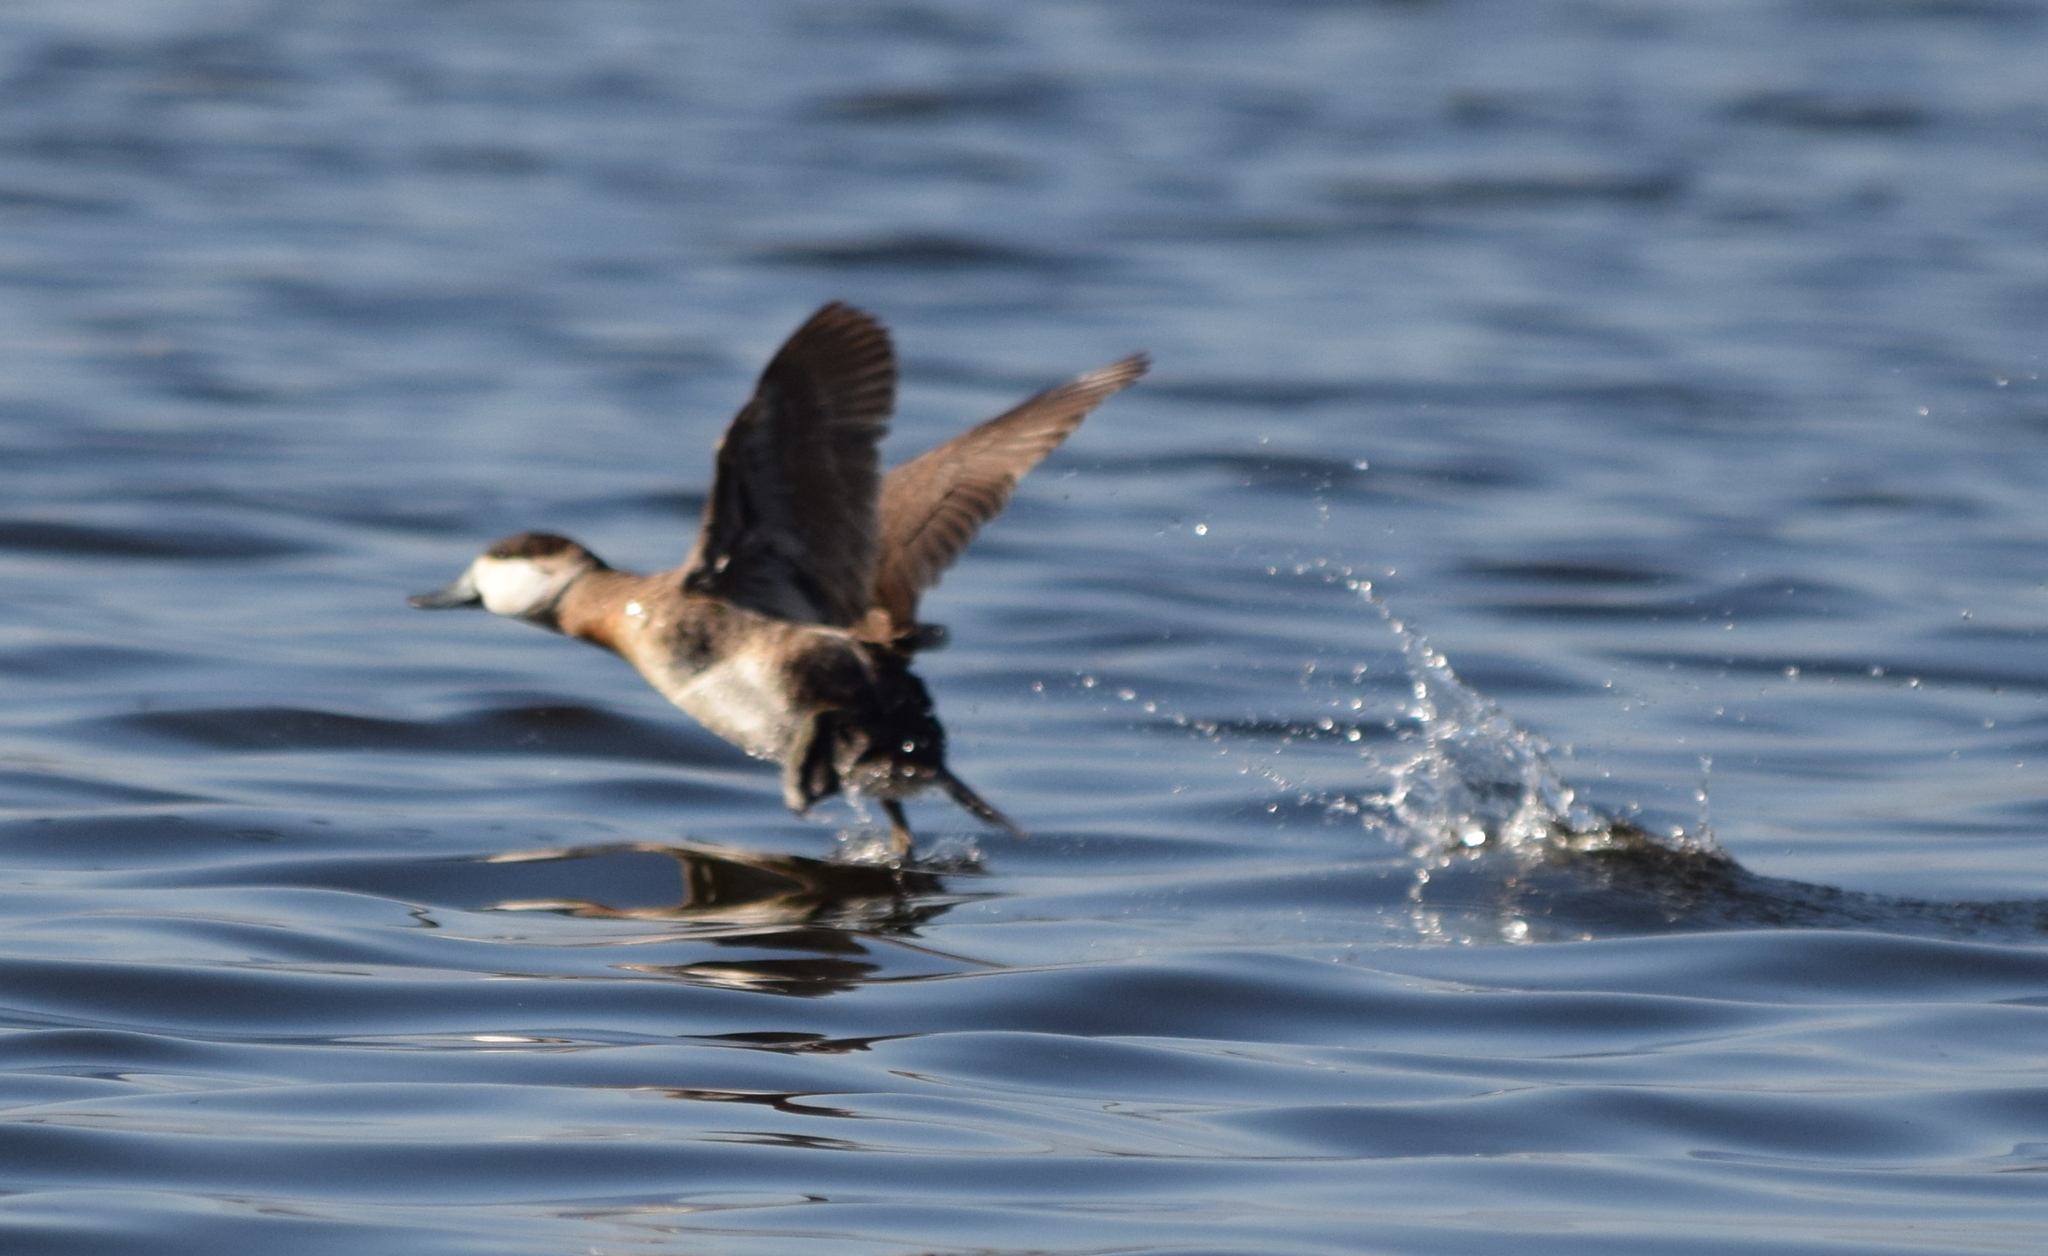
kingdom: Animalia
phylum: Chordata
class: Aves
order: Anseriformes
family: Anatidae
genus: Oxyura
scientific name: Oxyura jamaicensis
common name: Ruddy duck
